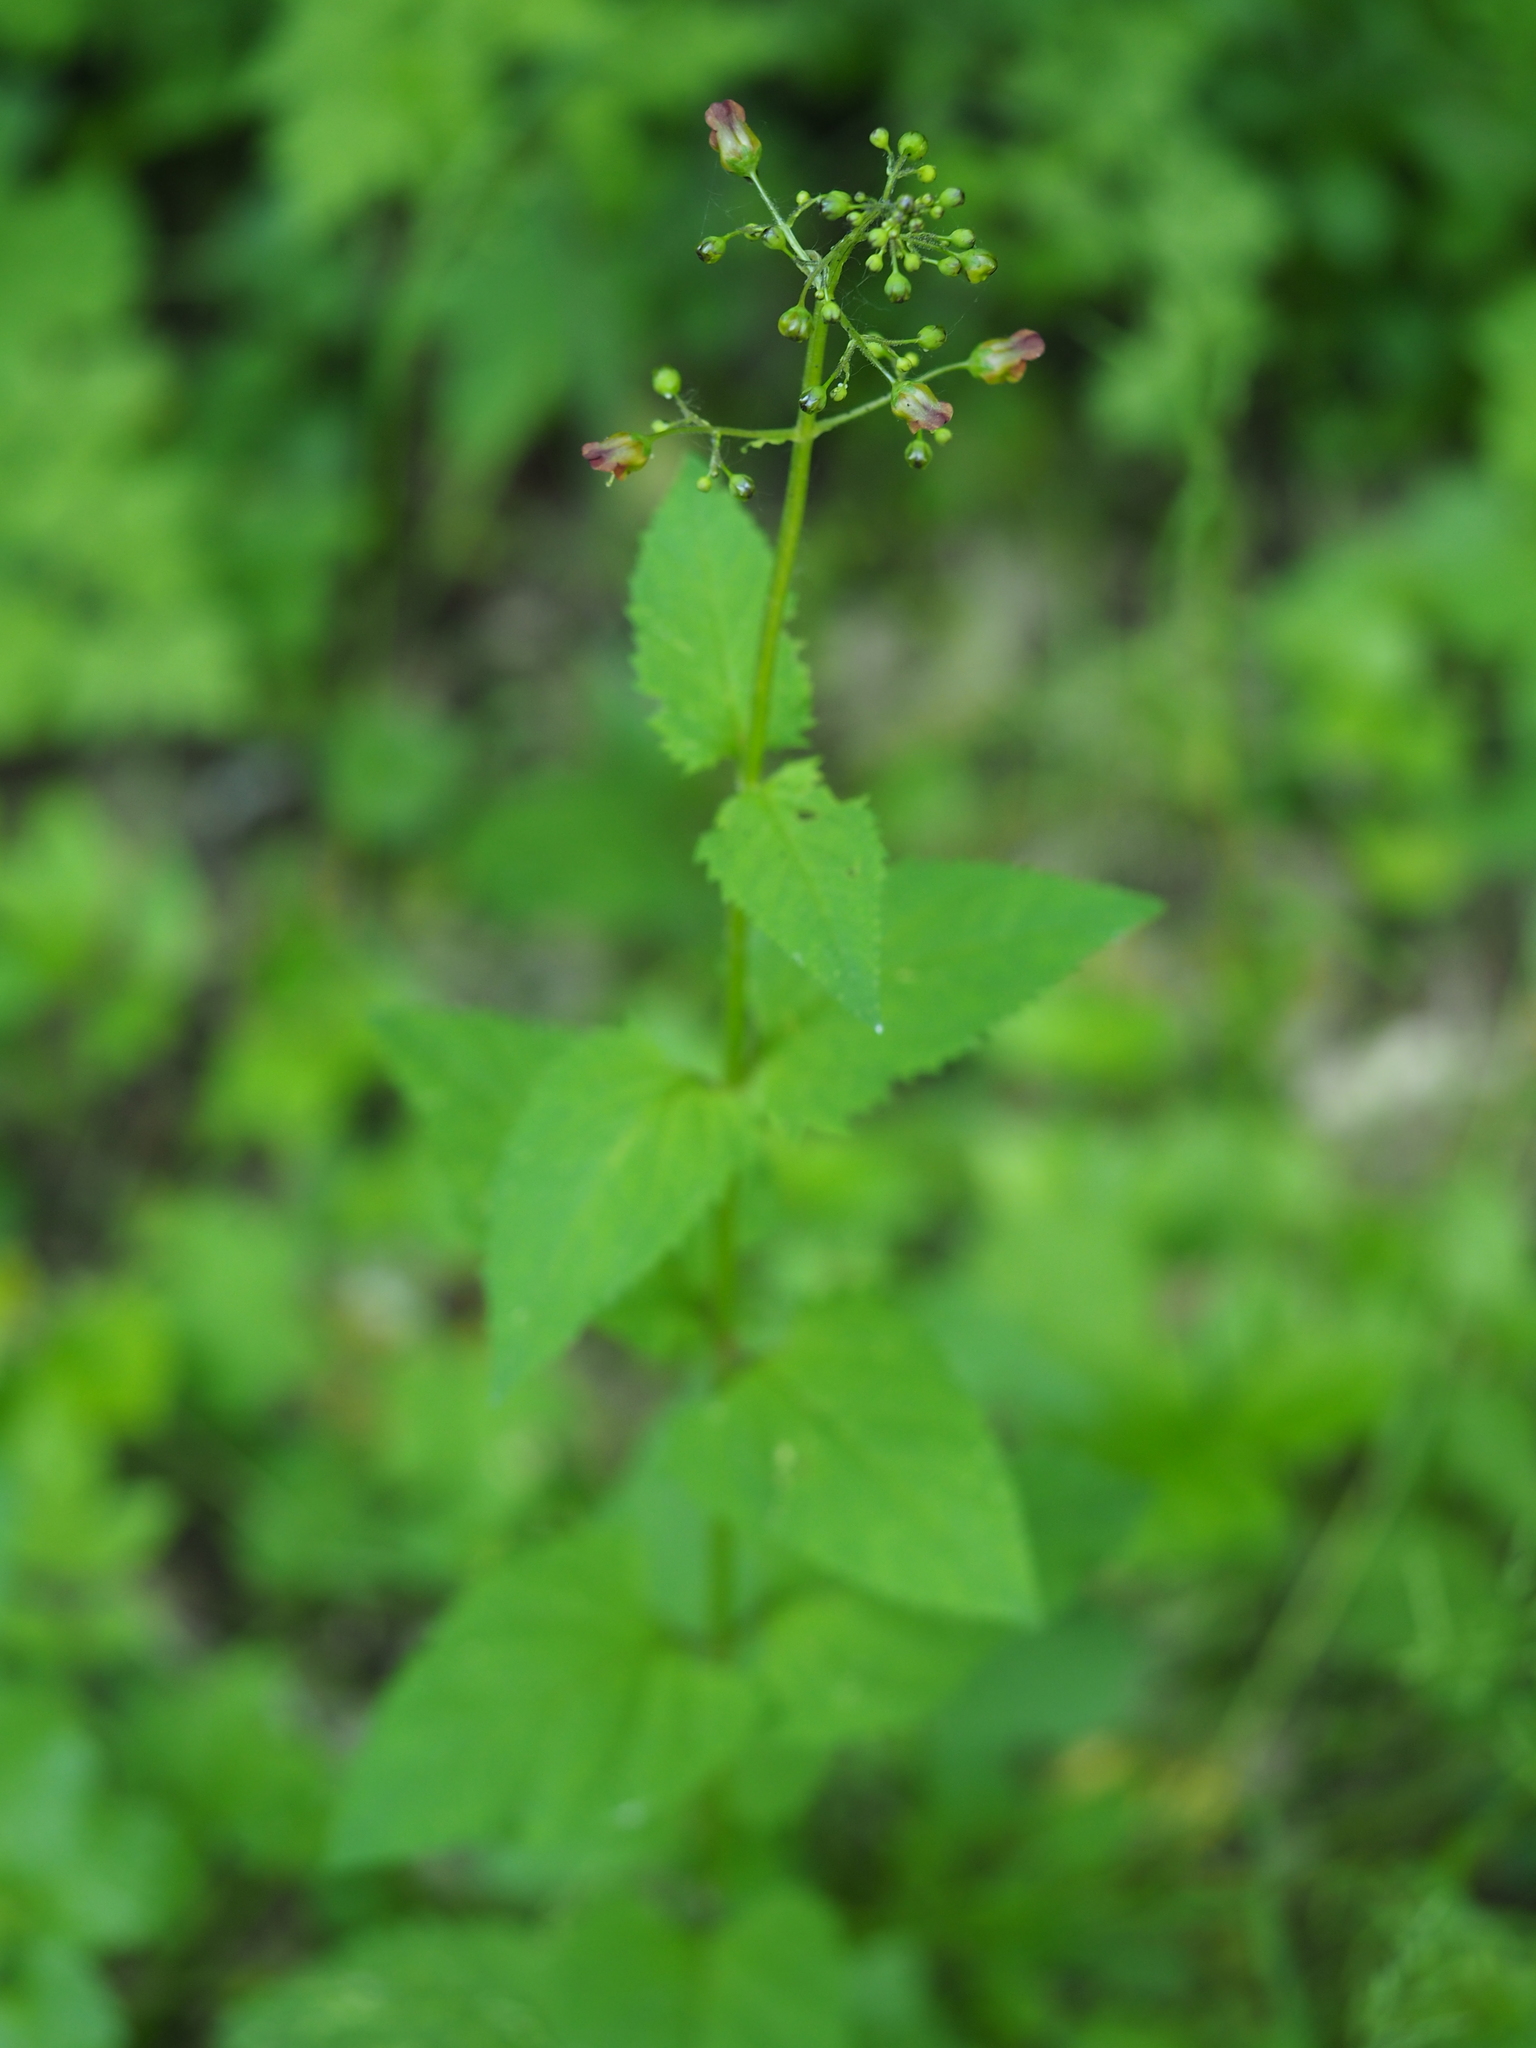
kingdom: Plantae
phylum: Tracheophyta
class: Magnoliopsida
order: Lamiales
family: Scrophulariaceae
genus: Scrophularia
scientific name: Scrophularia nodosa
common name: Common figwort
